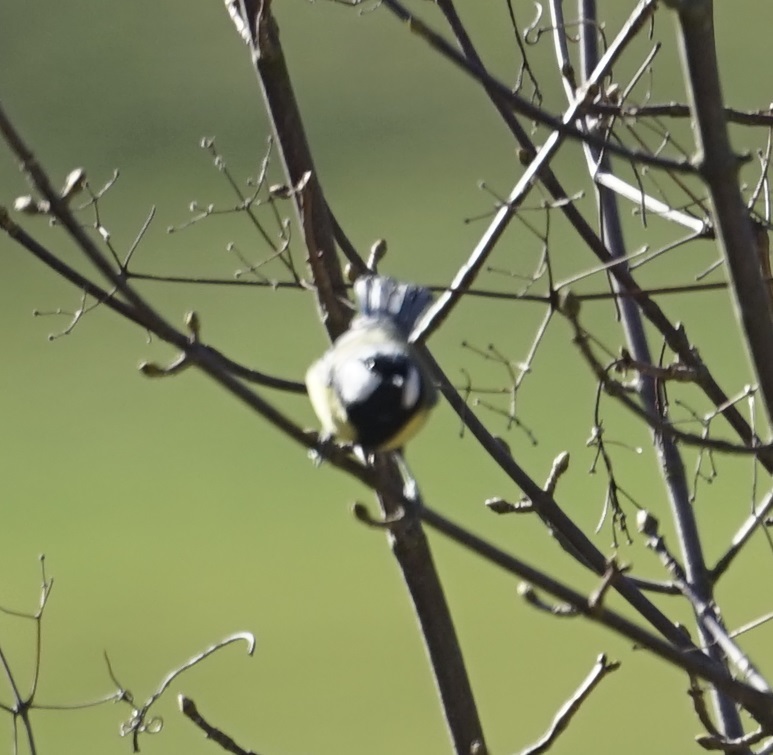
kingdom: Animalia
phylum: Chordata
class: Aves
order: Passeriformes
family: Paridae
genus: Parus
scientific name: Parus major
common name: Great tit
